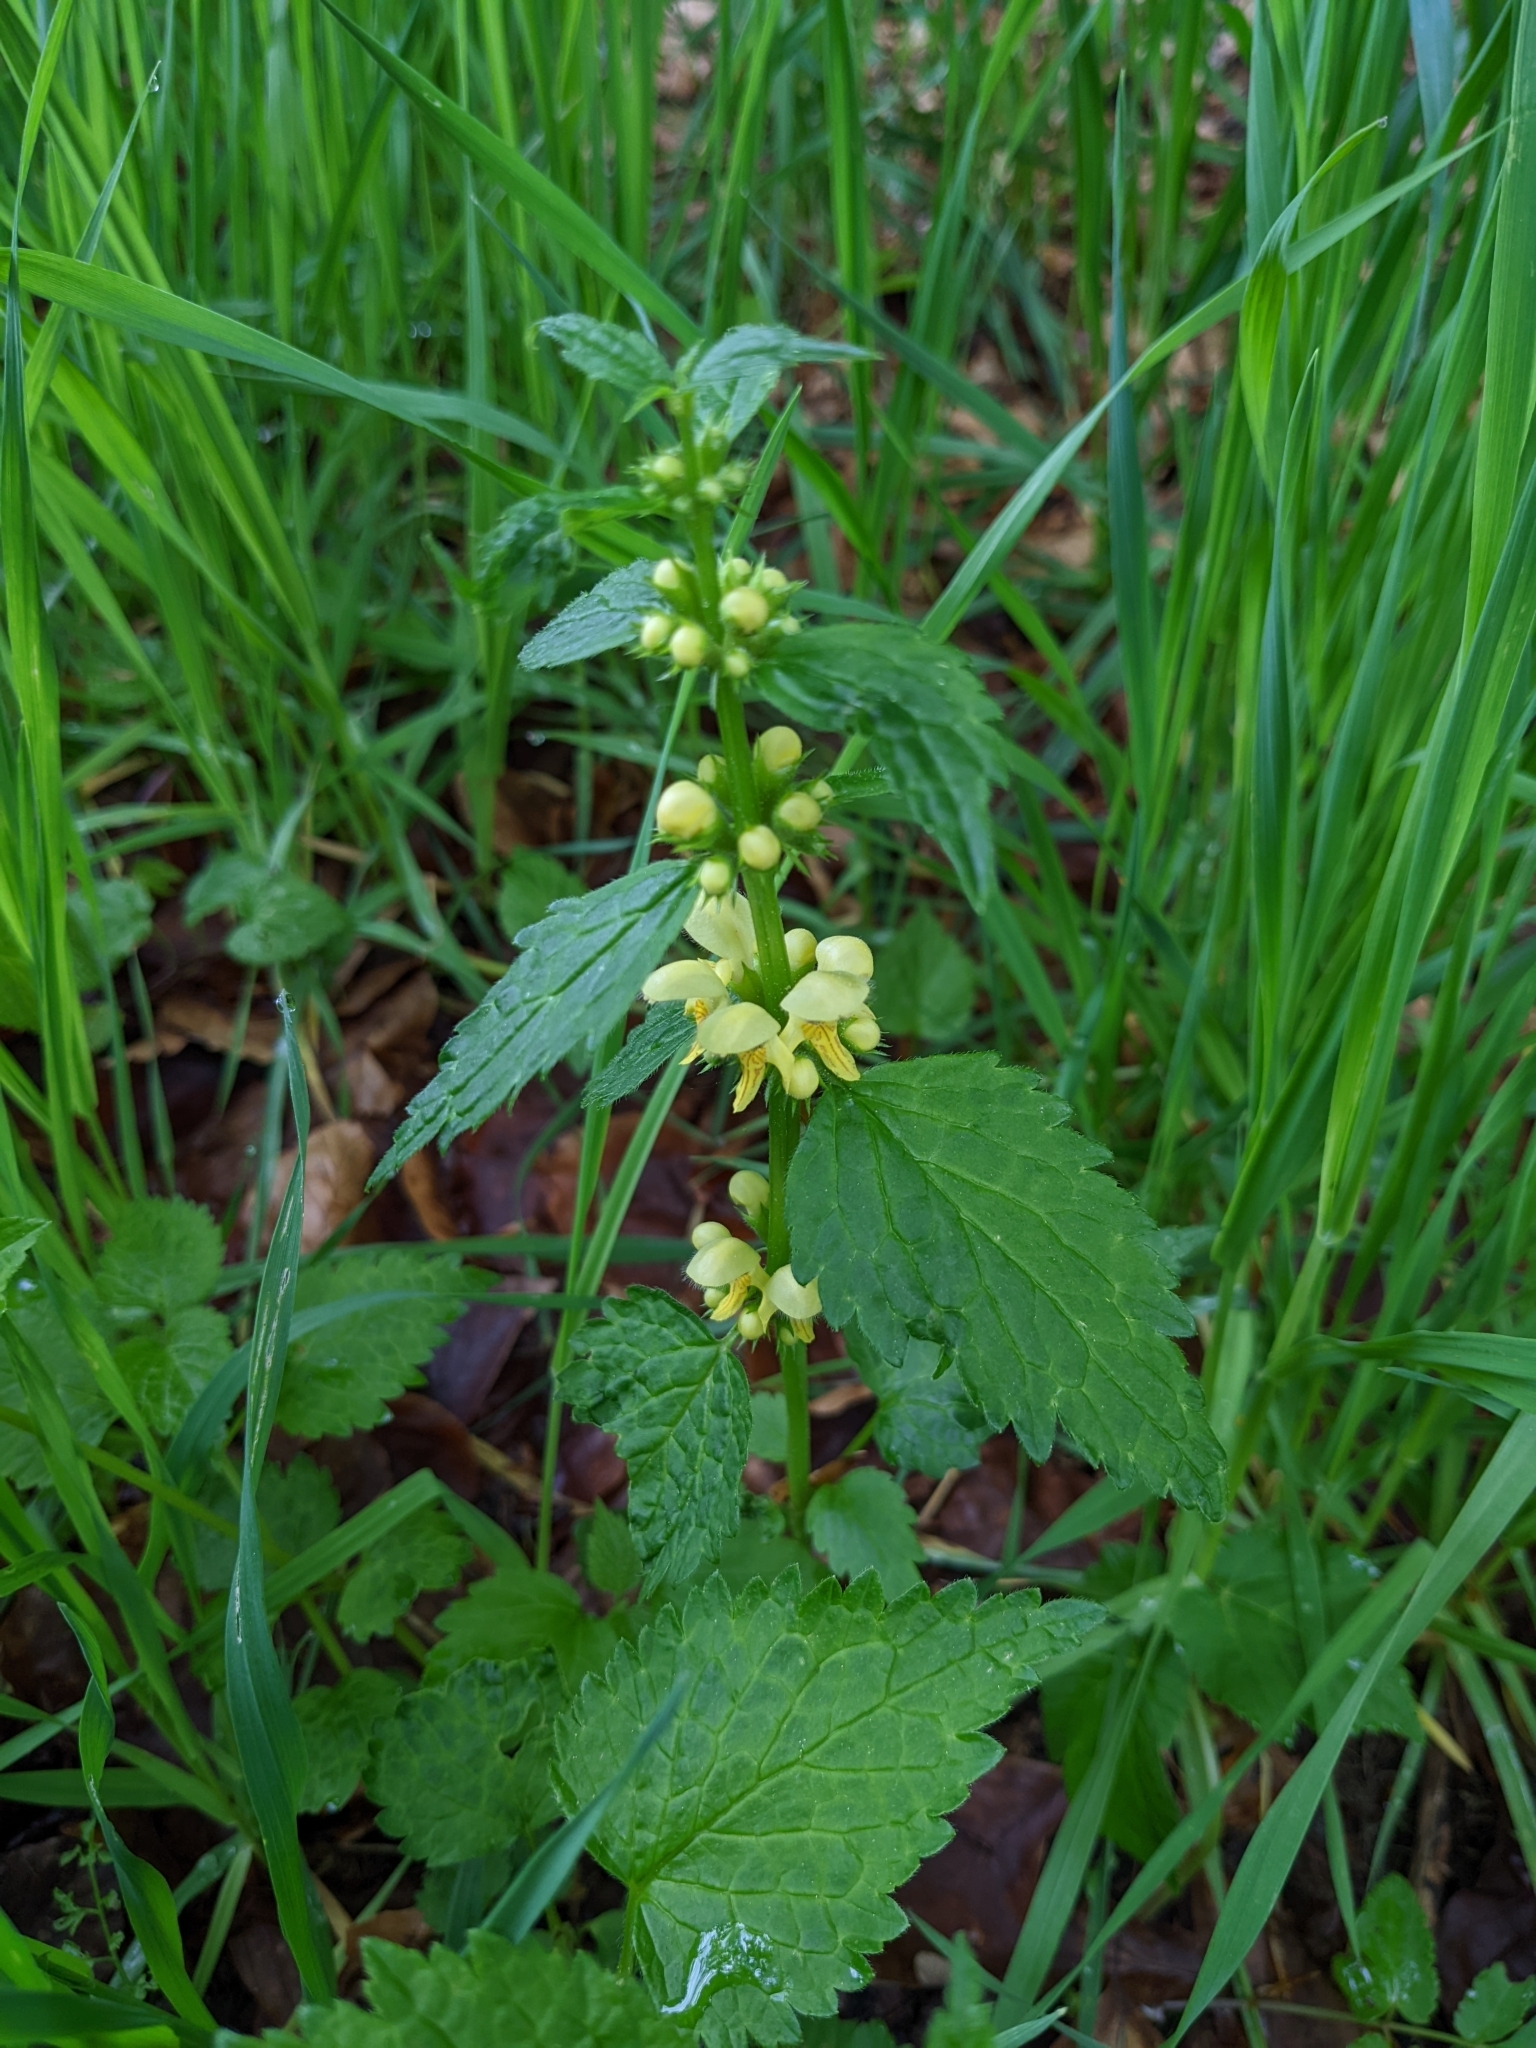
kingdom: Plantae
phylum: Tracheophyta
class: Magnoliopsida
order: Lamiales
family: Lamiaceae
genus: Lamium
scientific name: Lamium galeobdolon
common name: Yellow archangel
